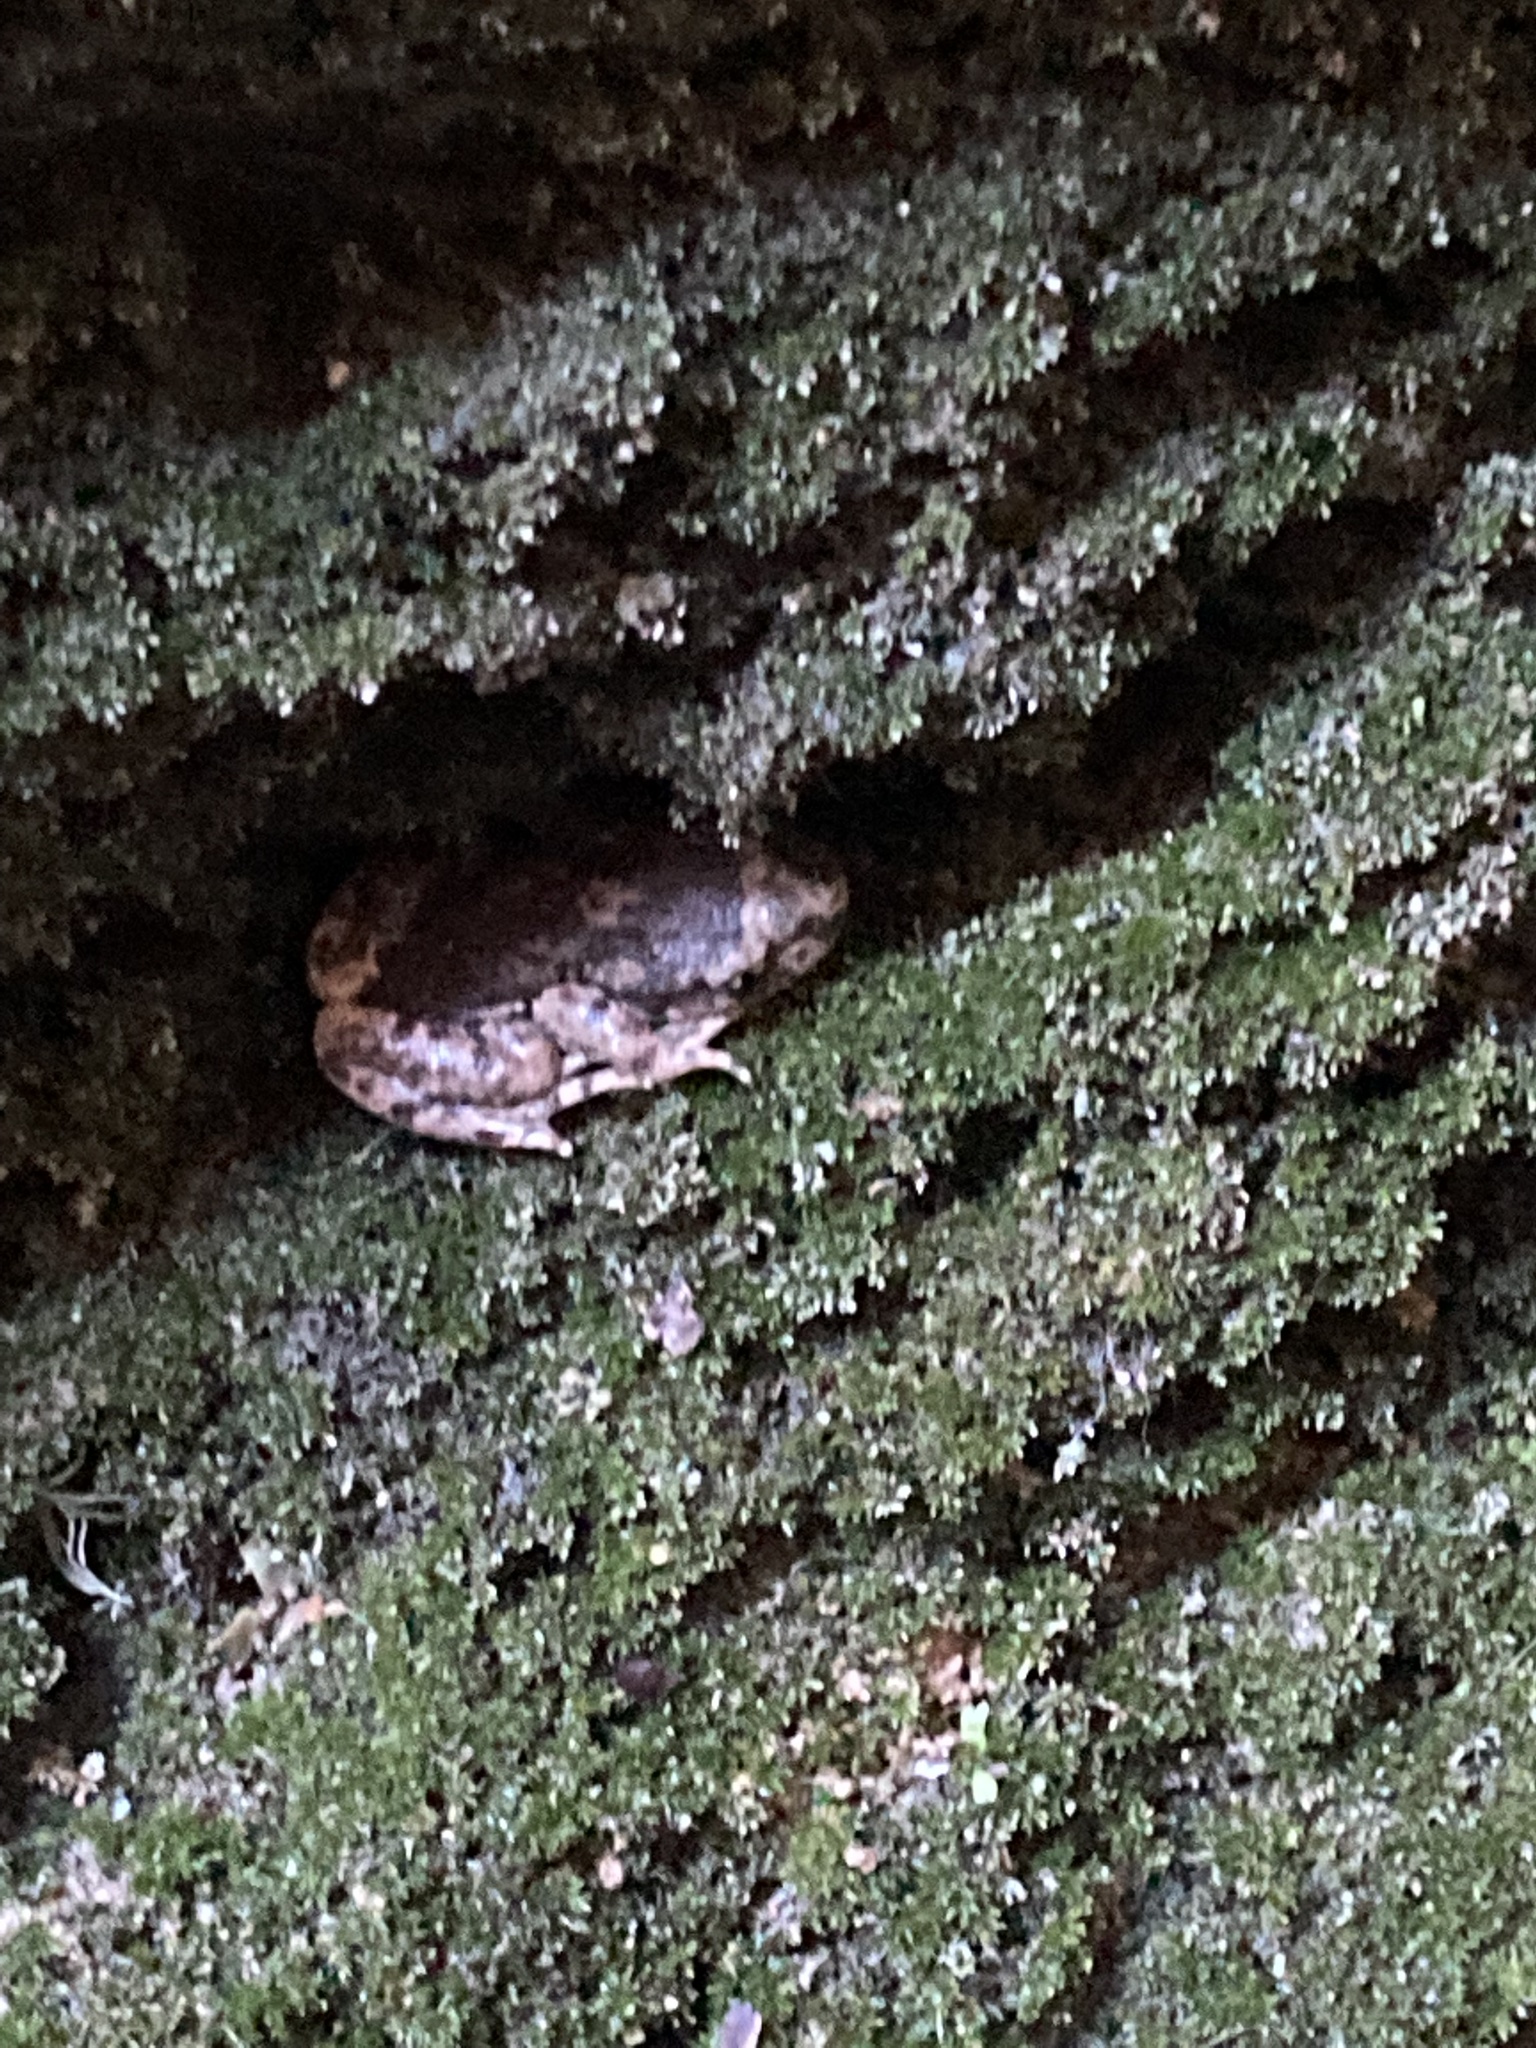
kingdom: Animalia
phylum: Chordata
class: Amphibia
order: Anura
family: Alytidae
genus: Alytes
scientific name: Alytes dickhilleni
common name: Betic midwife toad
